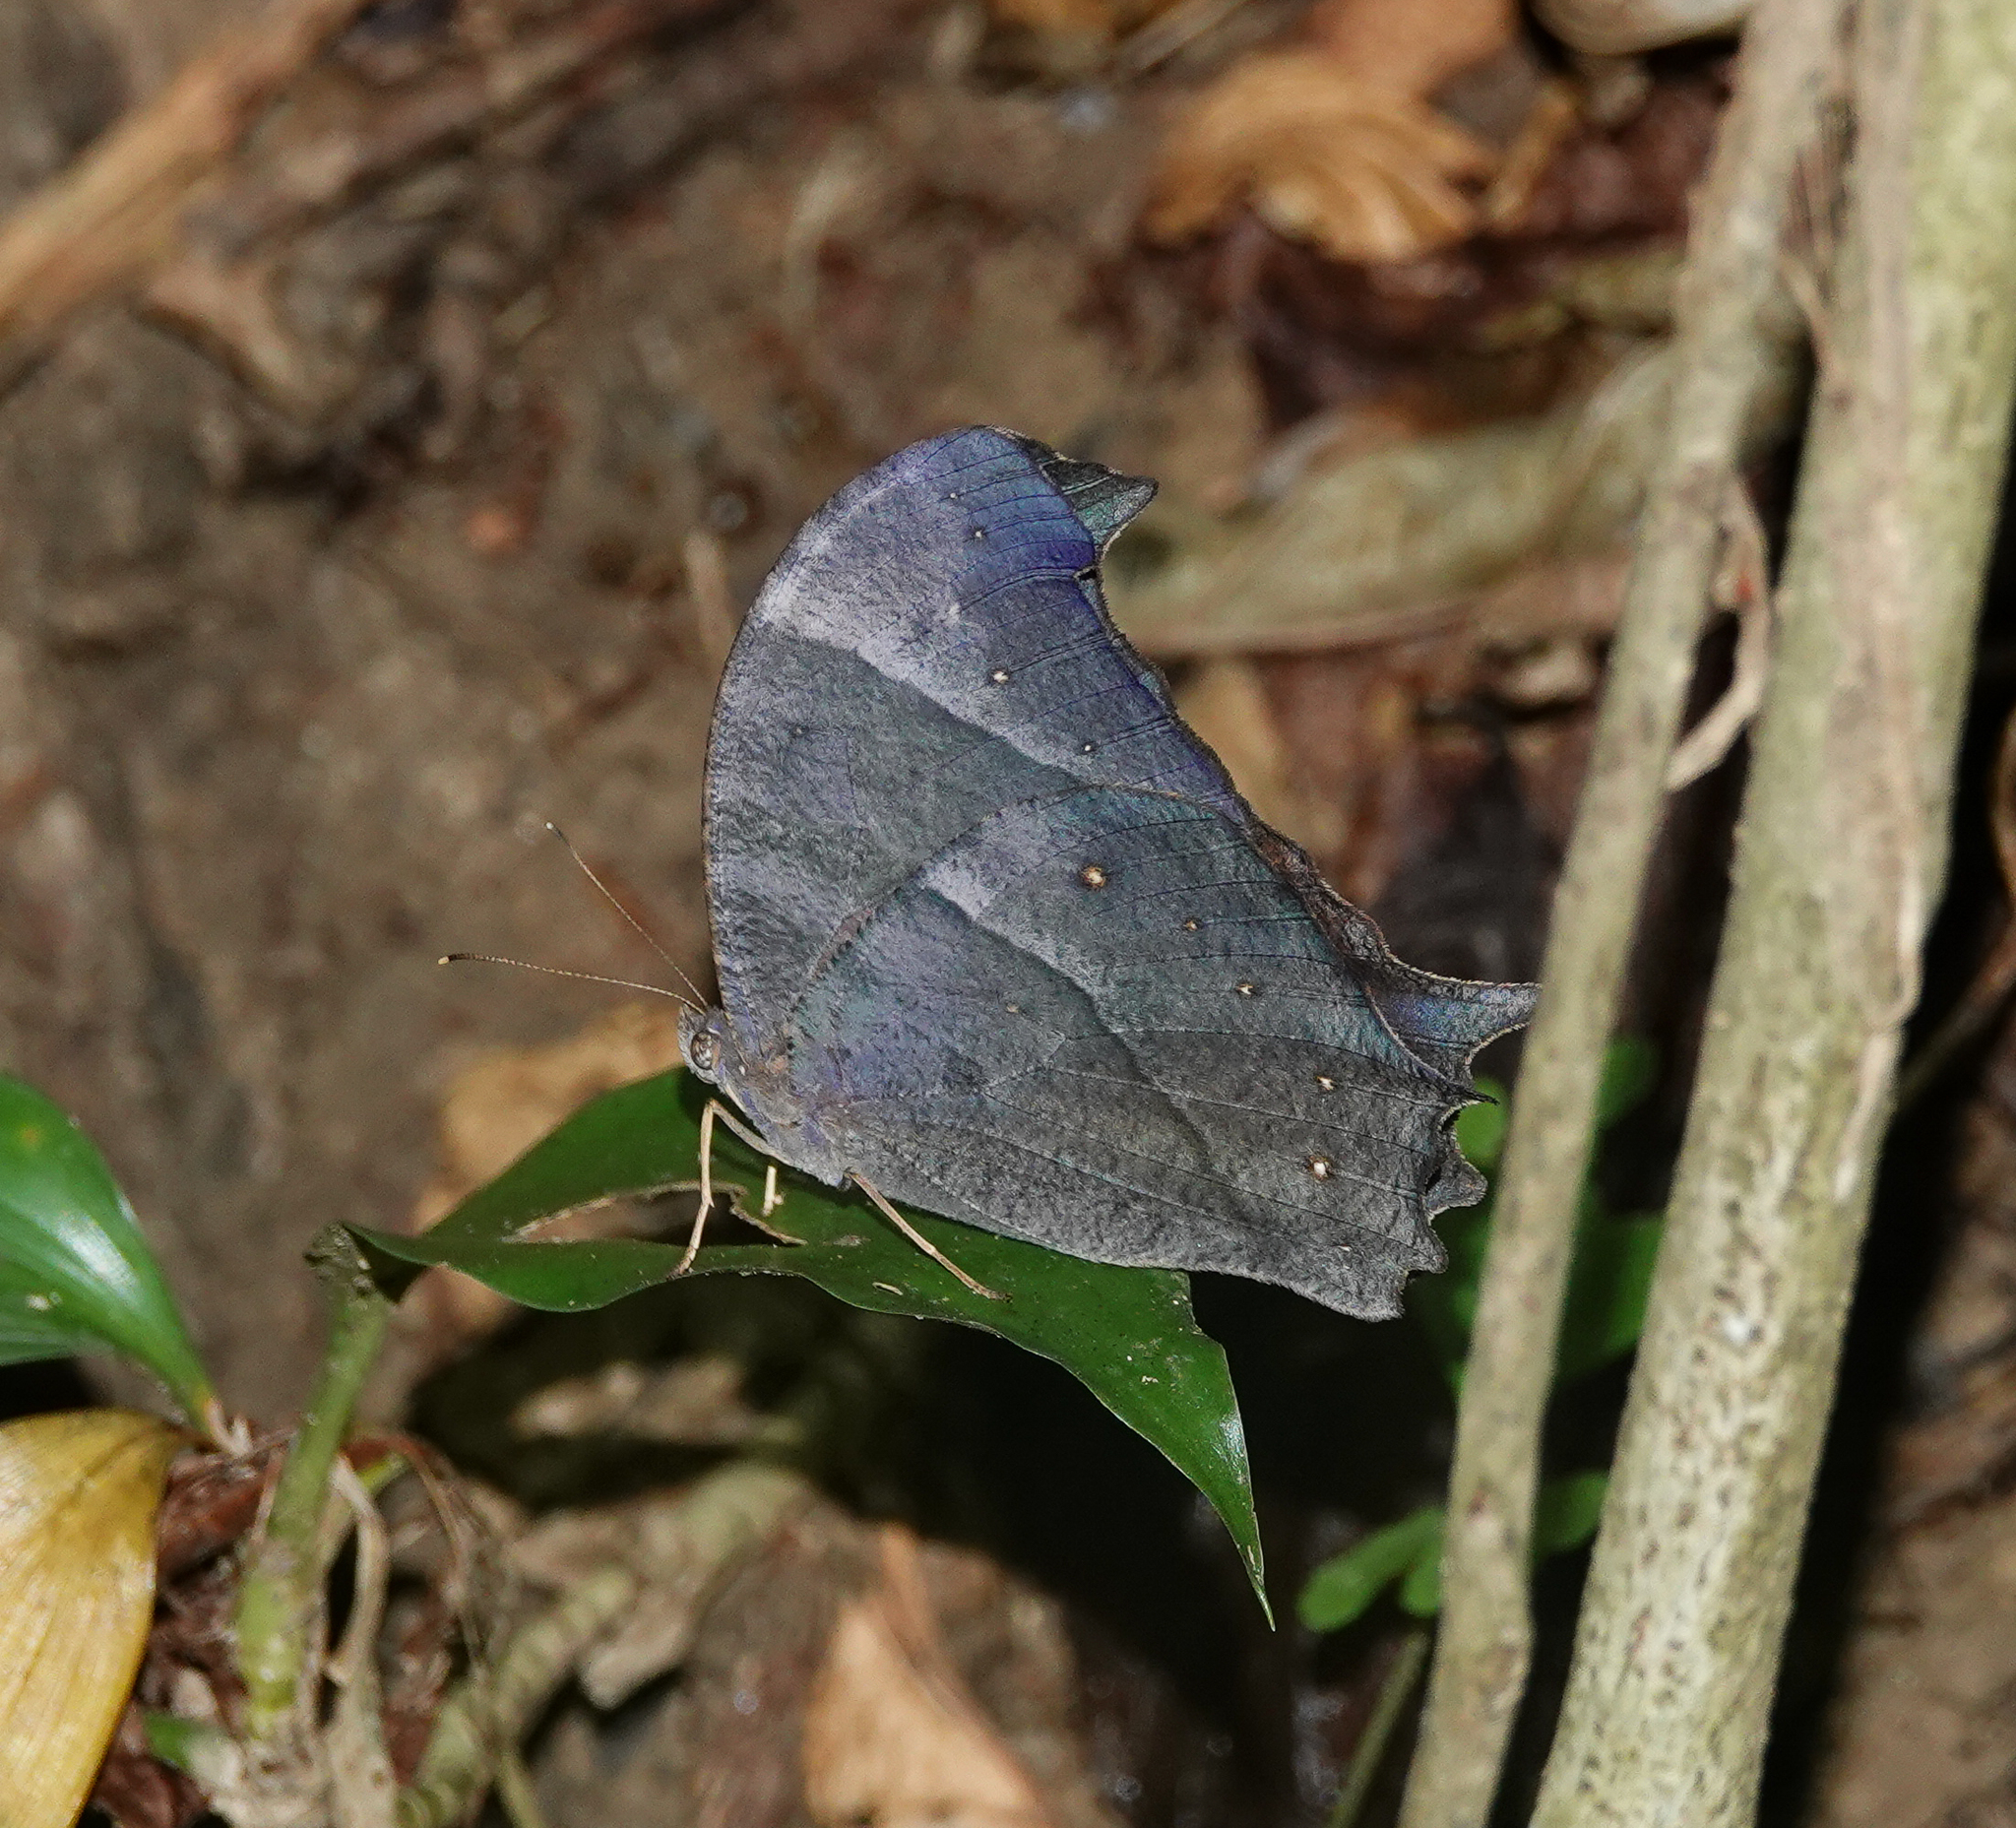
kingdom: Animalia
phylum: Arthropoda
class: Insecta
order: Lepidoptera
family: Nymphalidae
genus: Melanitis
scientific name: Melanitis zitenius
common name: Great evening brown
